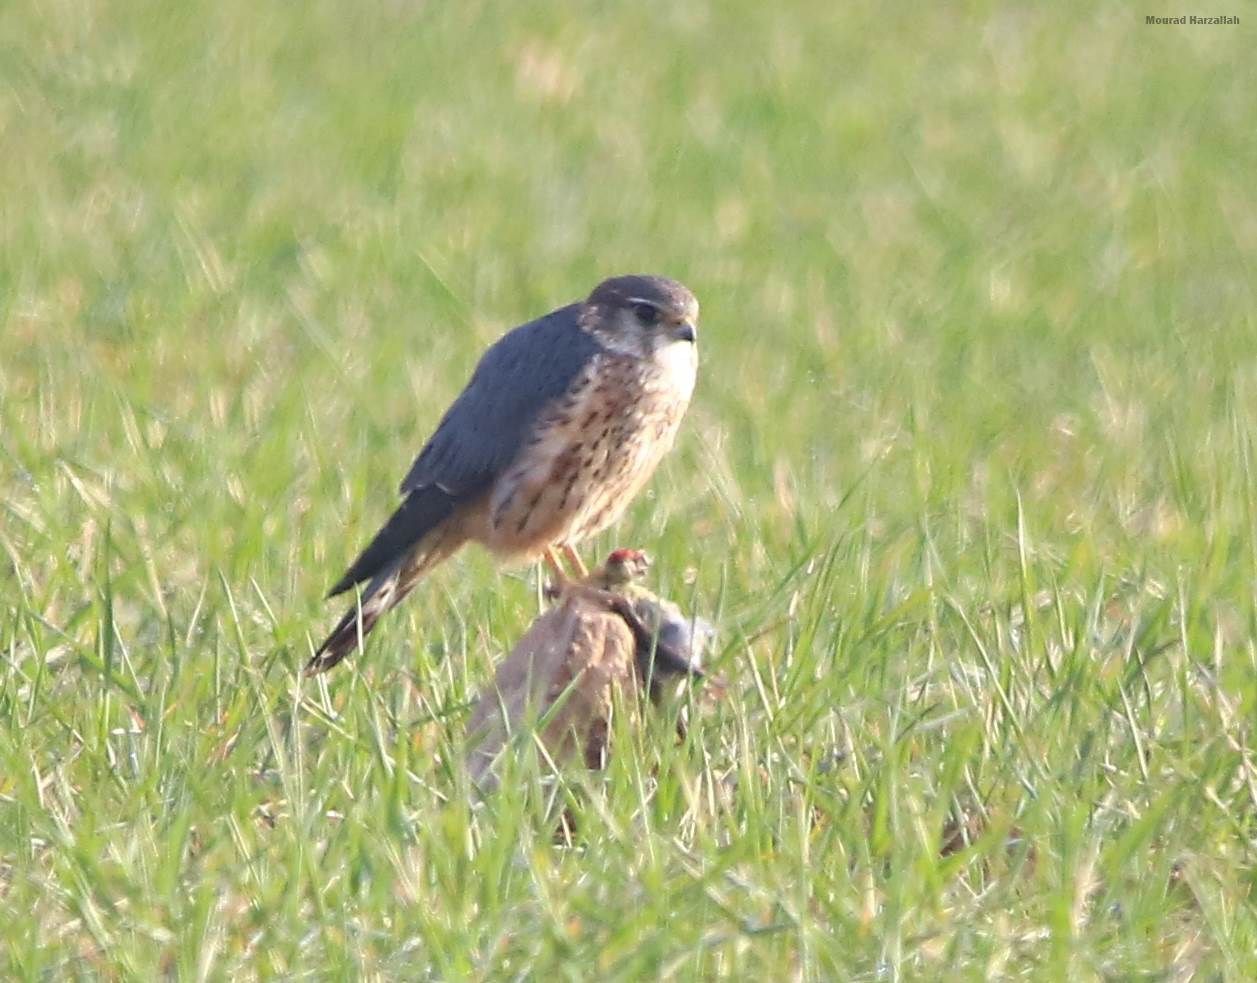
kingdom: Animalia
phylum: Chordata
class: Aves
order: Falconiformes
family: Falconidae
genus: Falco
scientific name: Falco columbarius
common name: Merlin
